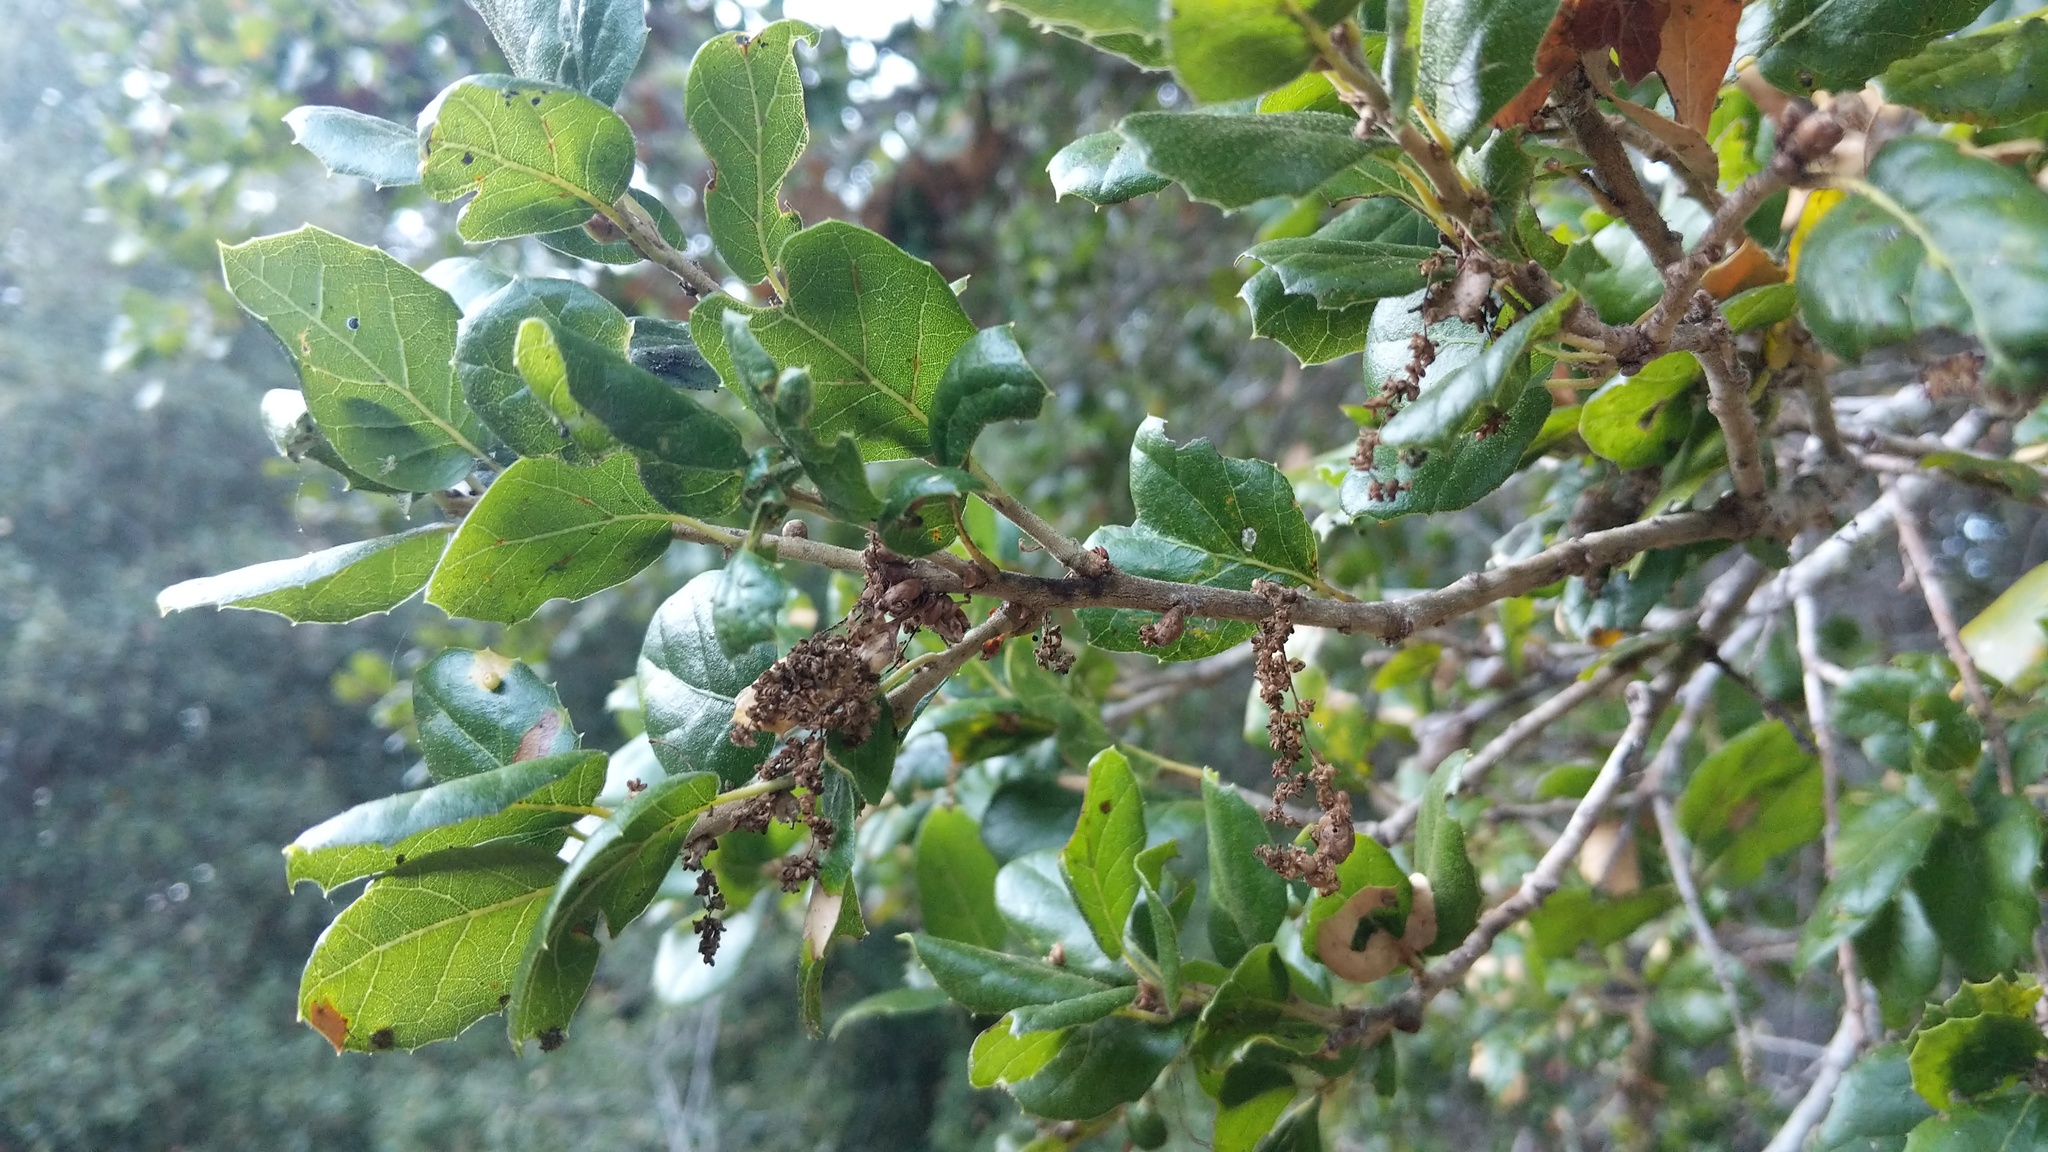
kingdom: Animalia
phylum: Arthropoda
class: Insecta
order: Hymenoptera
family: Cynipidae
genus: Callirhytis
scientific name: Callirhytis
